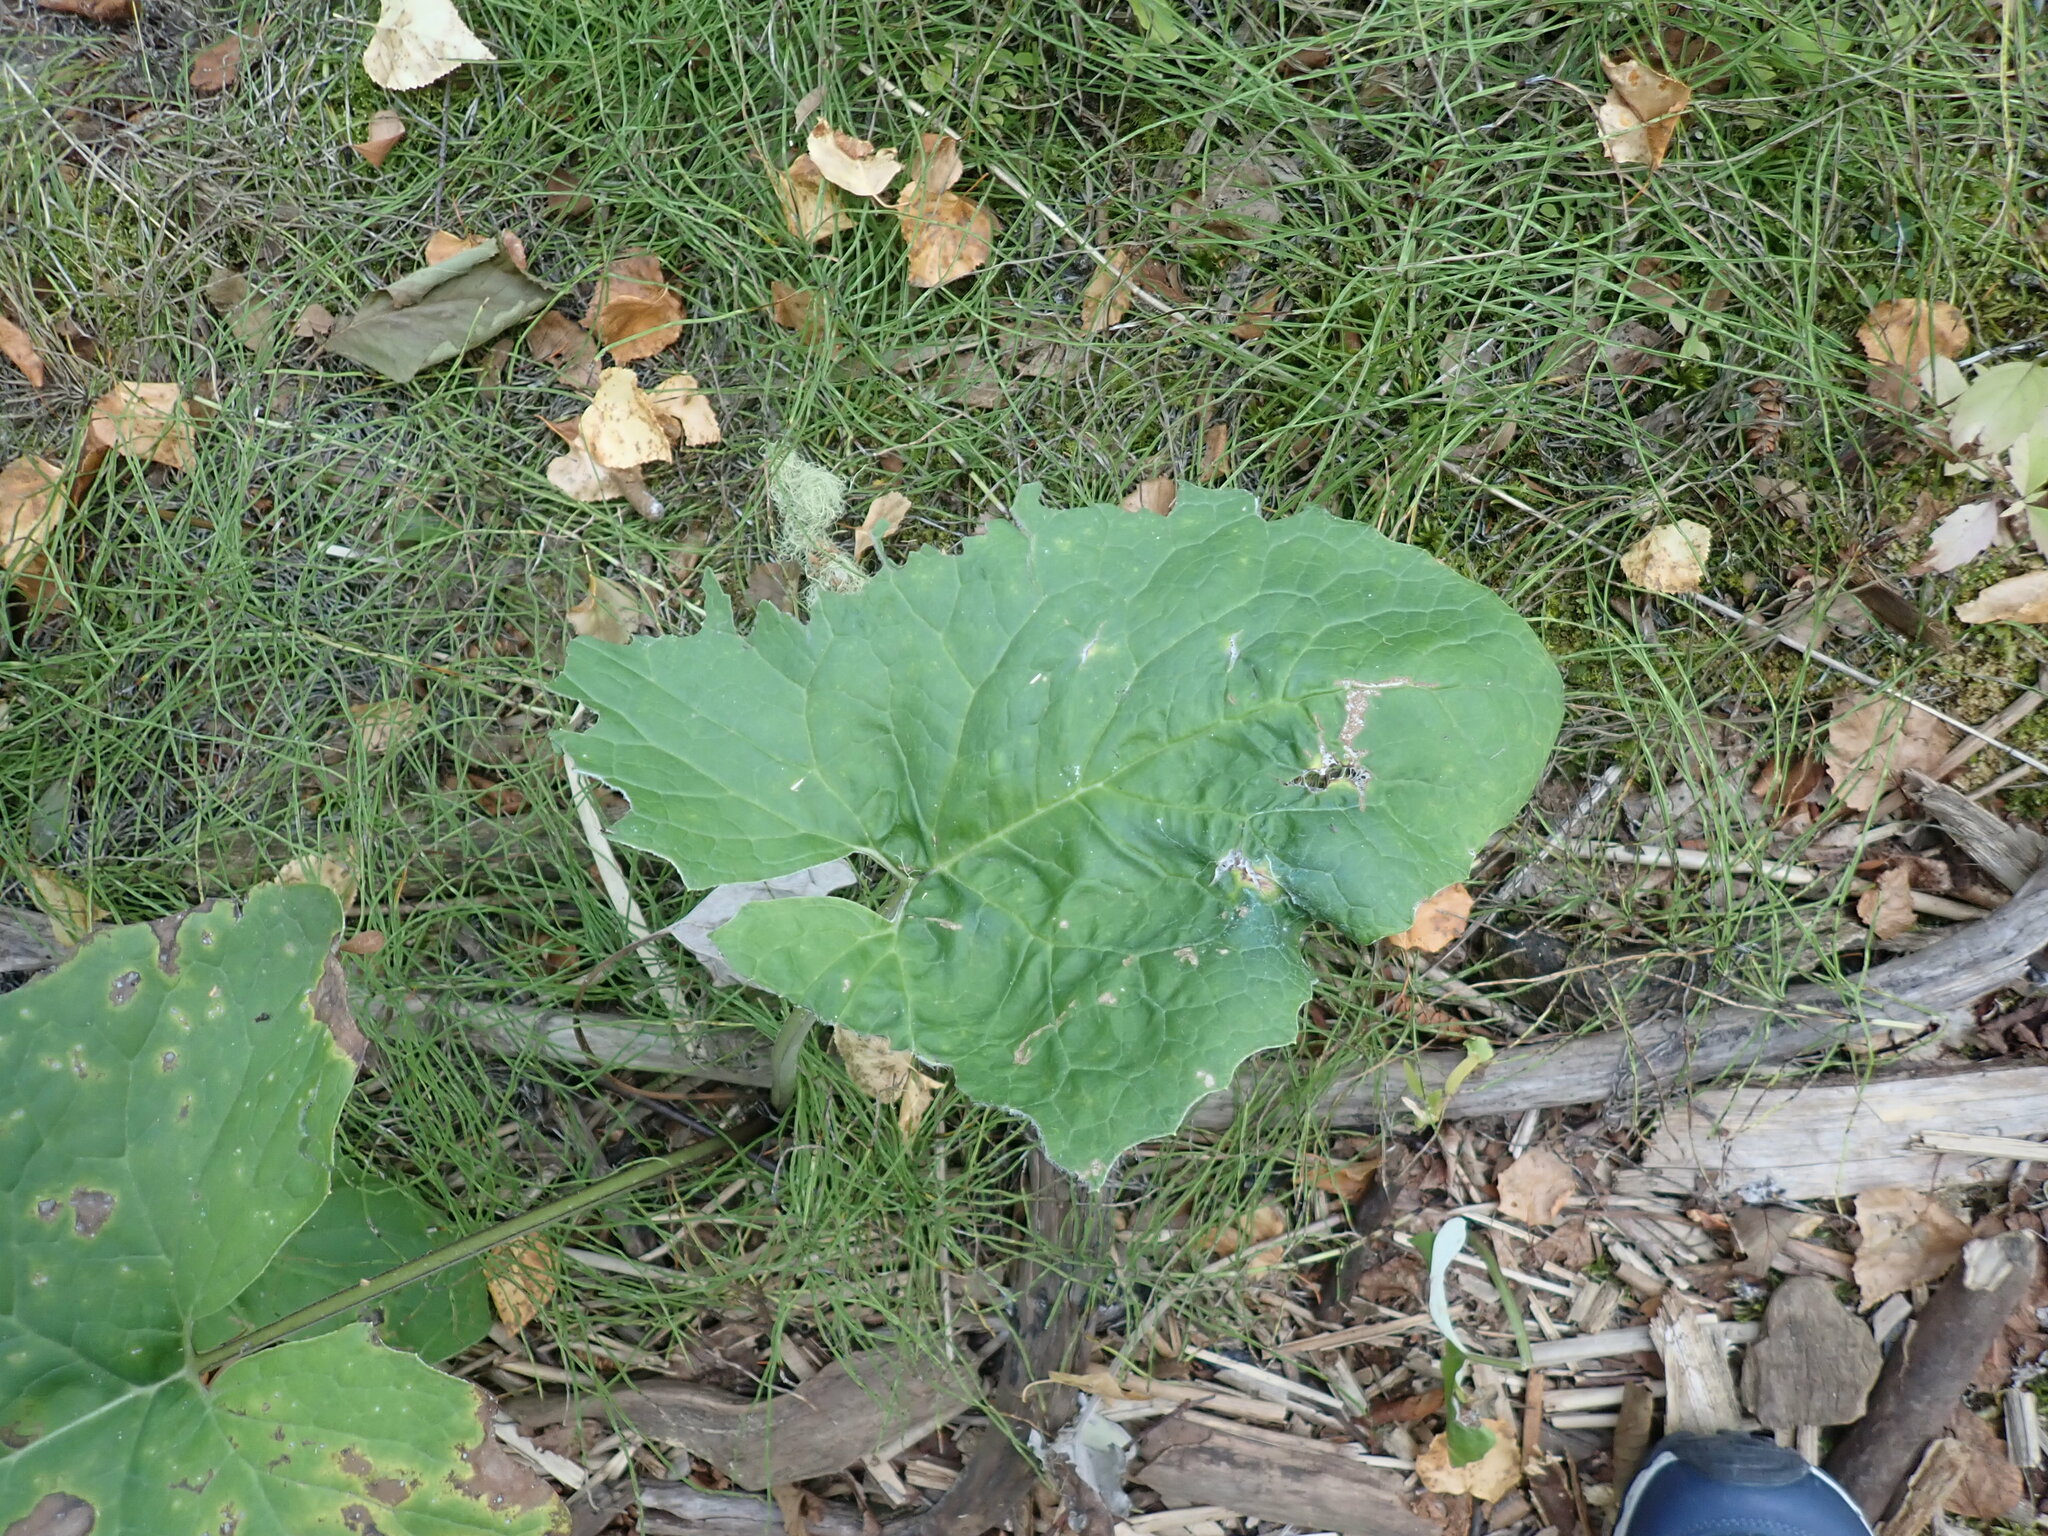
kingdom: Plantae
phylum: Tracheophyta
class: Magnoliopsida
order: Asterales
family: Asteraceae
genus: Petasites
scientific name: Petasites frigidus
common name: Arctic butterbur
